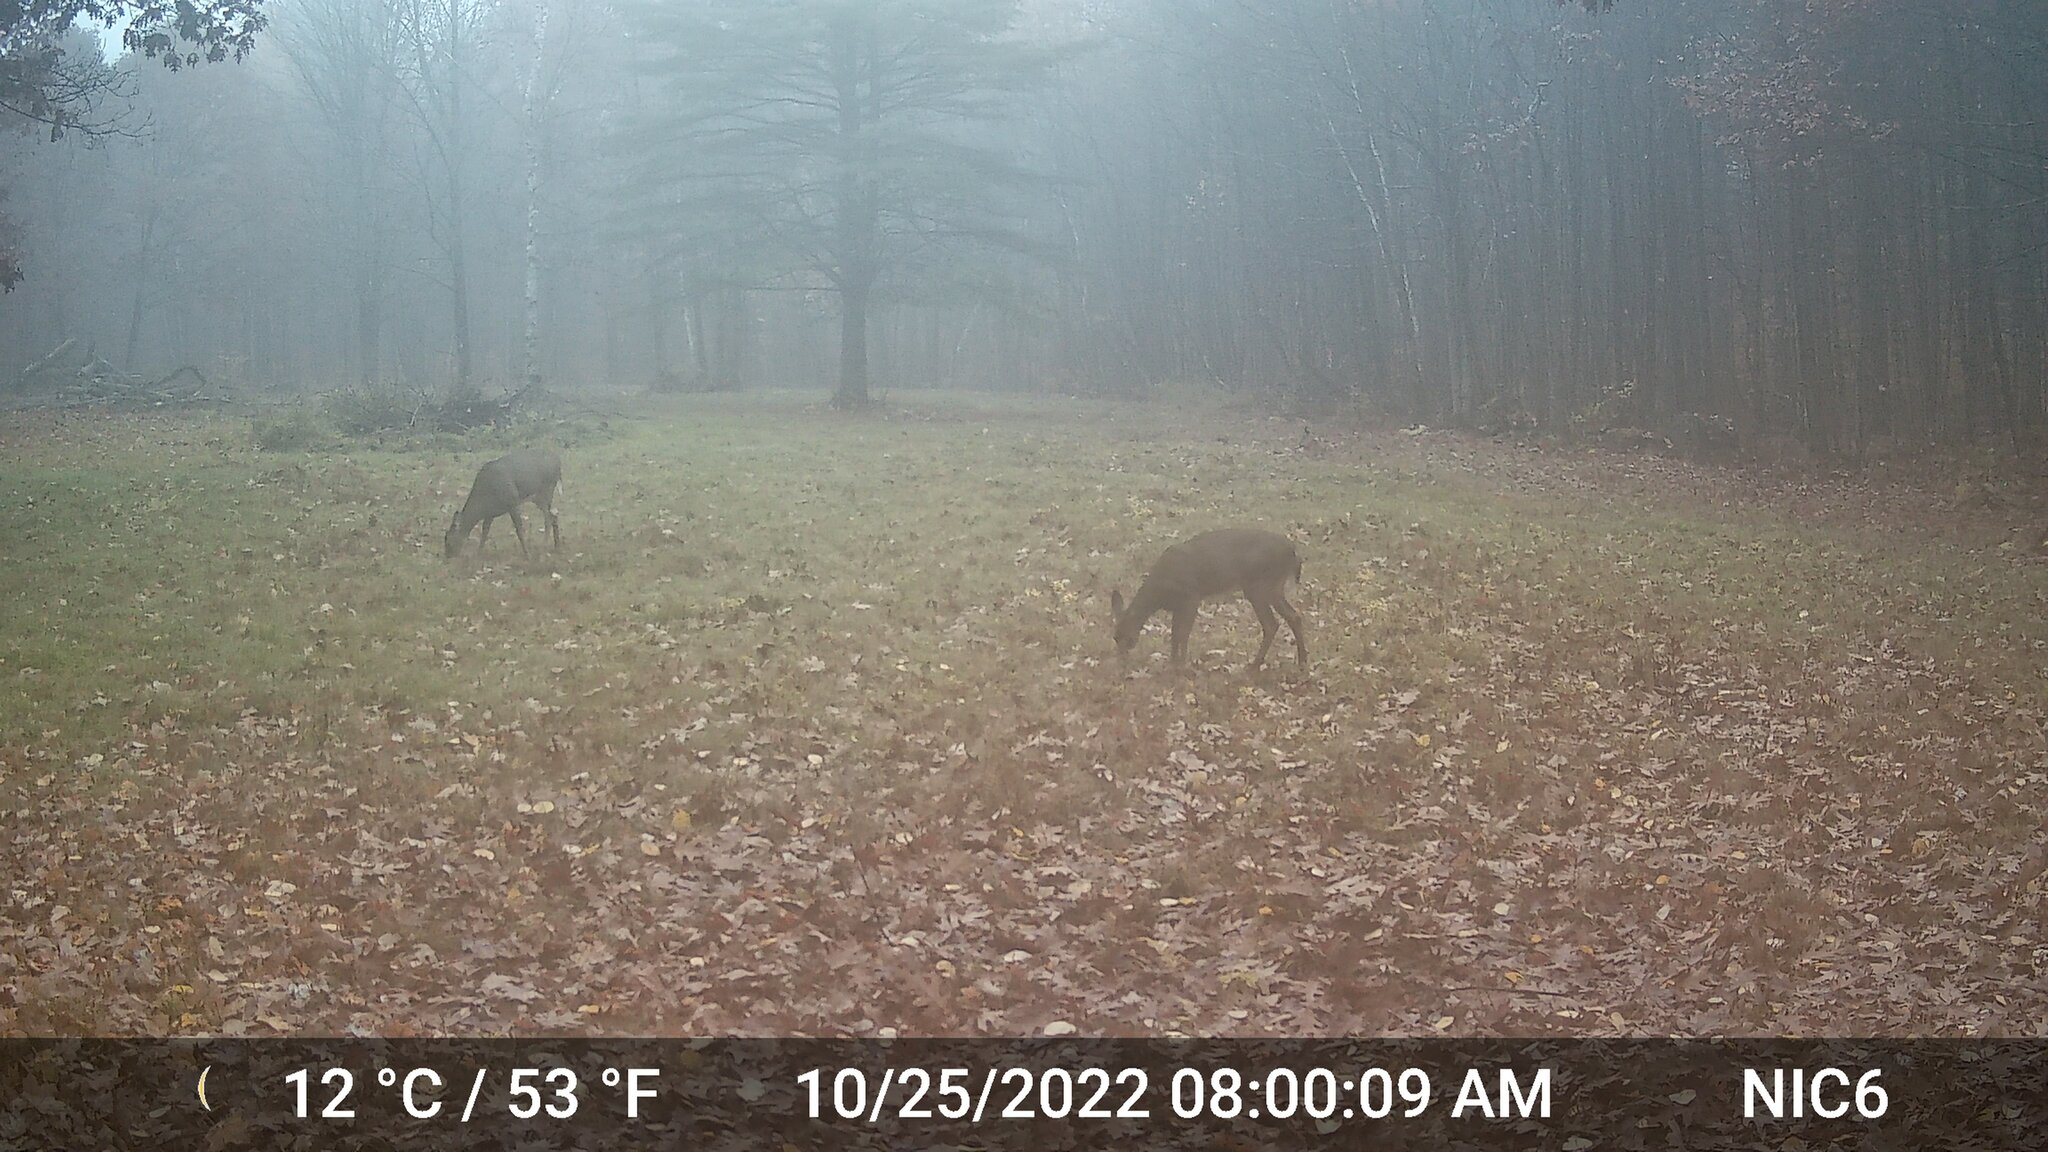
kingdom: Animalia
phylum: Chordata
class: Mammalia
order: Artiodactyla
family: Cervidae
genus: Odocoileus
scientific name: Odocoileus virginianus
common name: White-tailed deer
